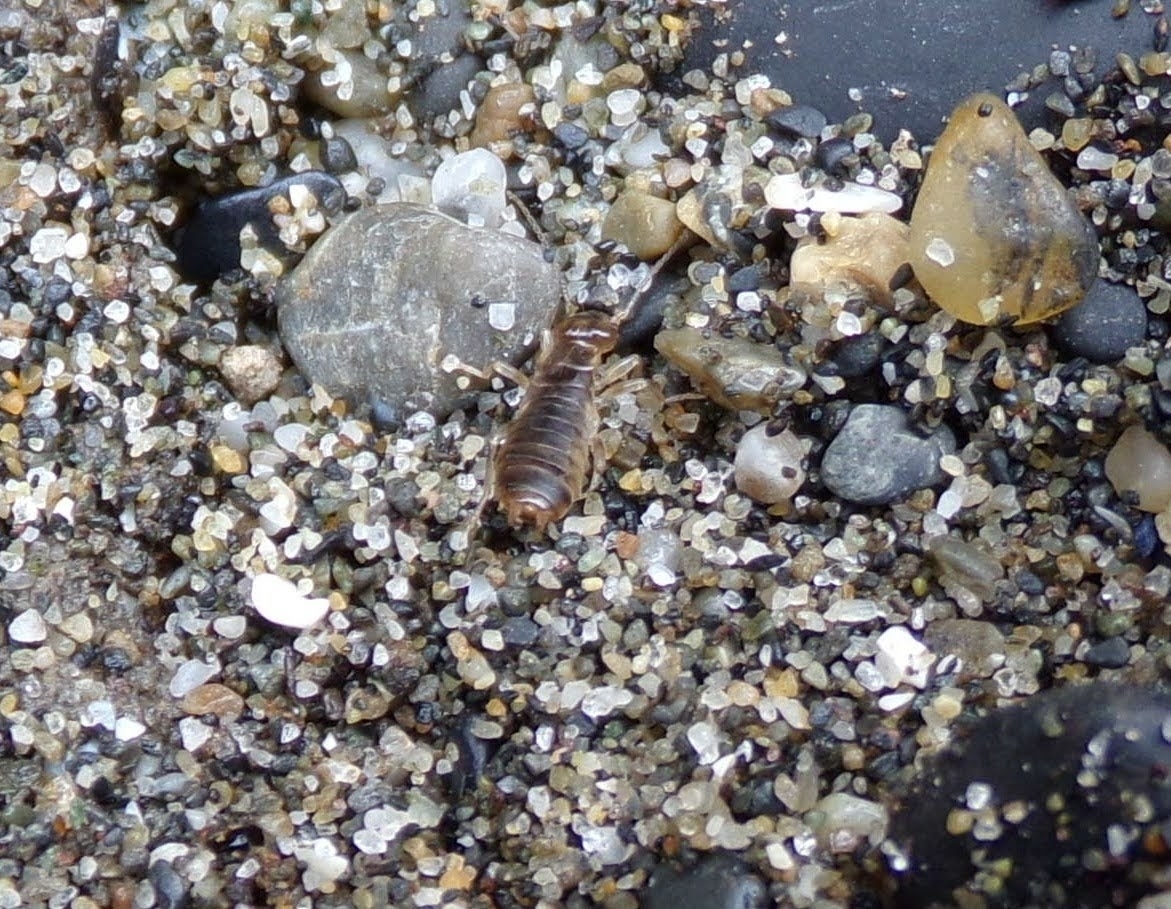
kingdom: Animalia
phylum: Arthropoda
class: Insecta
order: Dermaptera
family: Pygidicranidae
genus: Esphalmenus
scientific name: Esphalmenus rostratus
